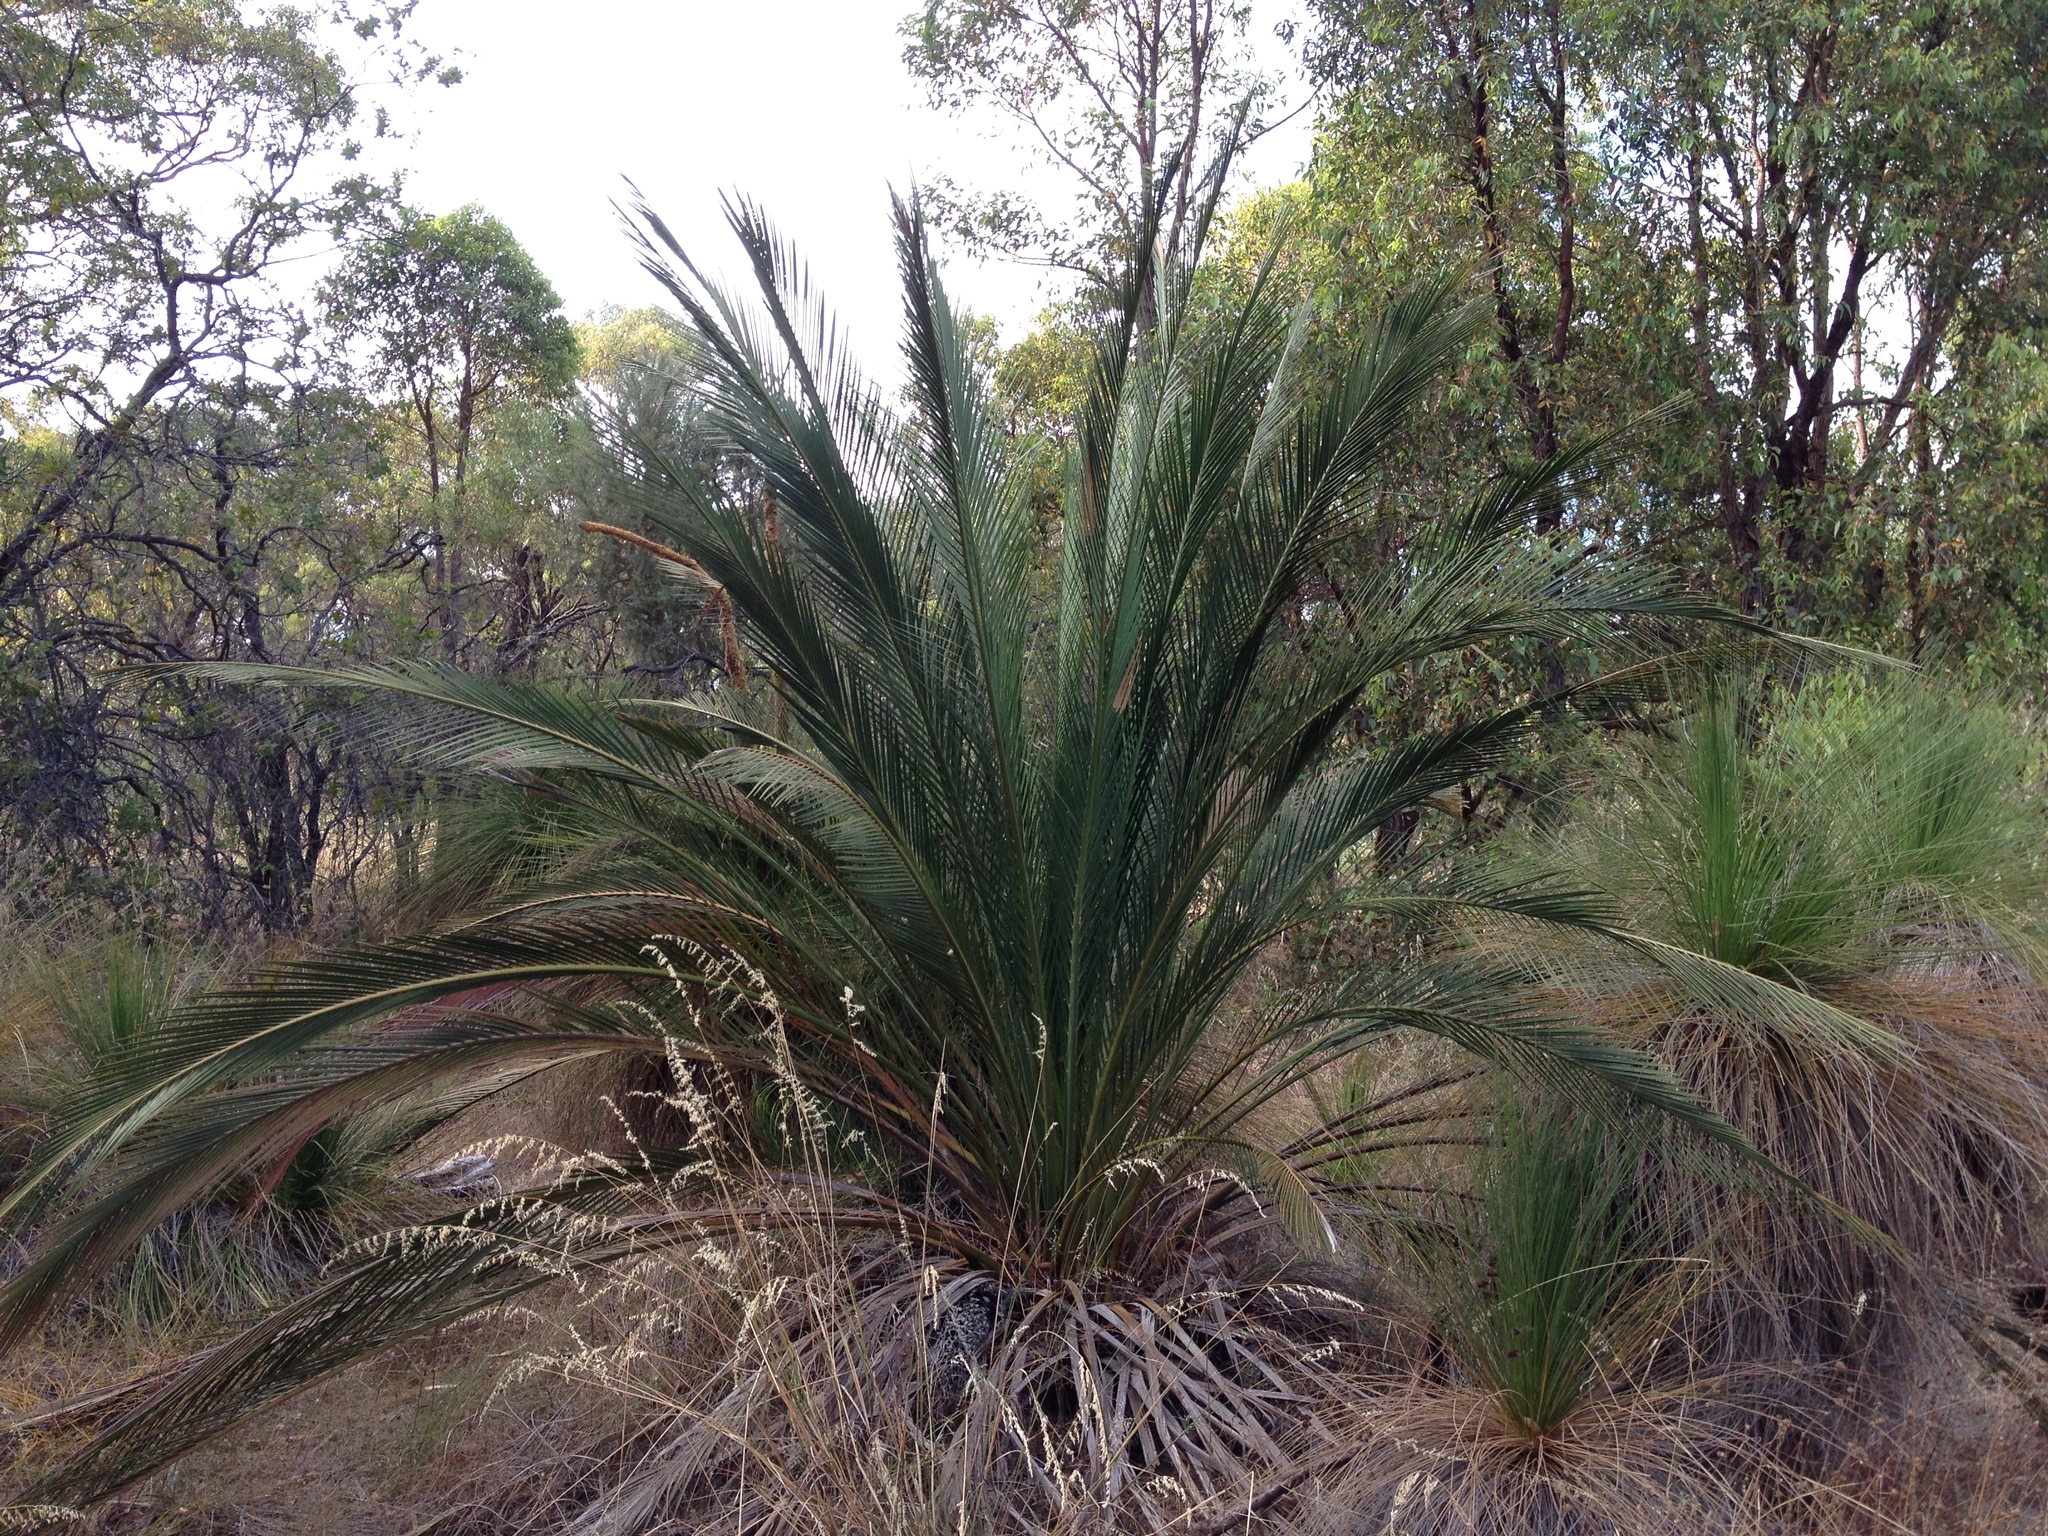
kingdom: Plantae
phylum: Tracheophyta
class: Cycadopsida
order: Cycadales
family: Zamiaceae
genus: Macrozamia
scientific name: Macrozamia fraseri
